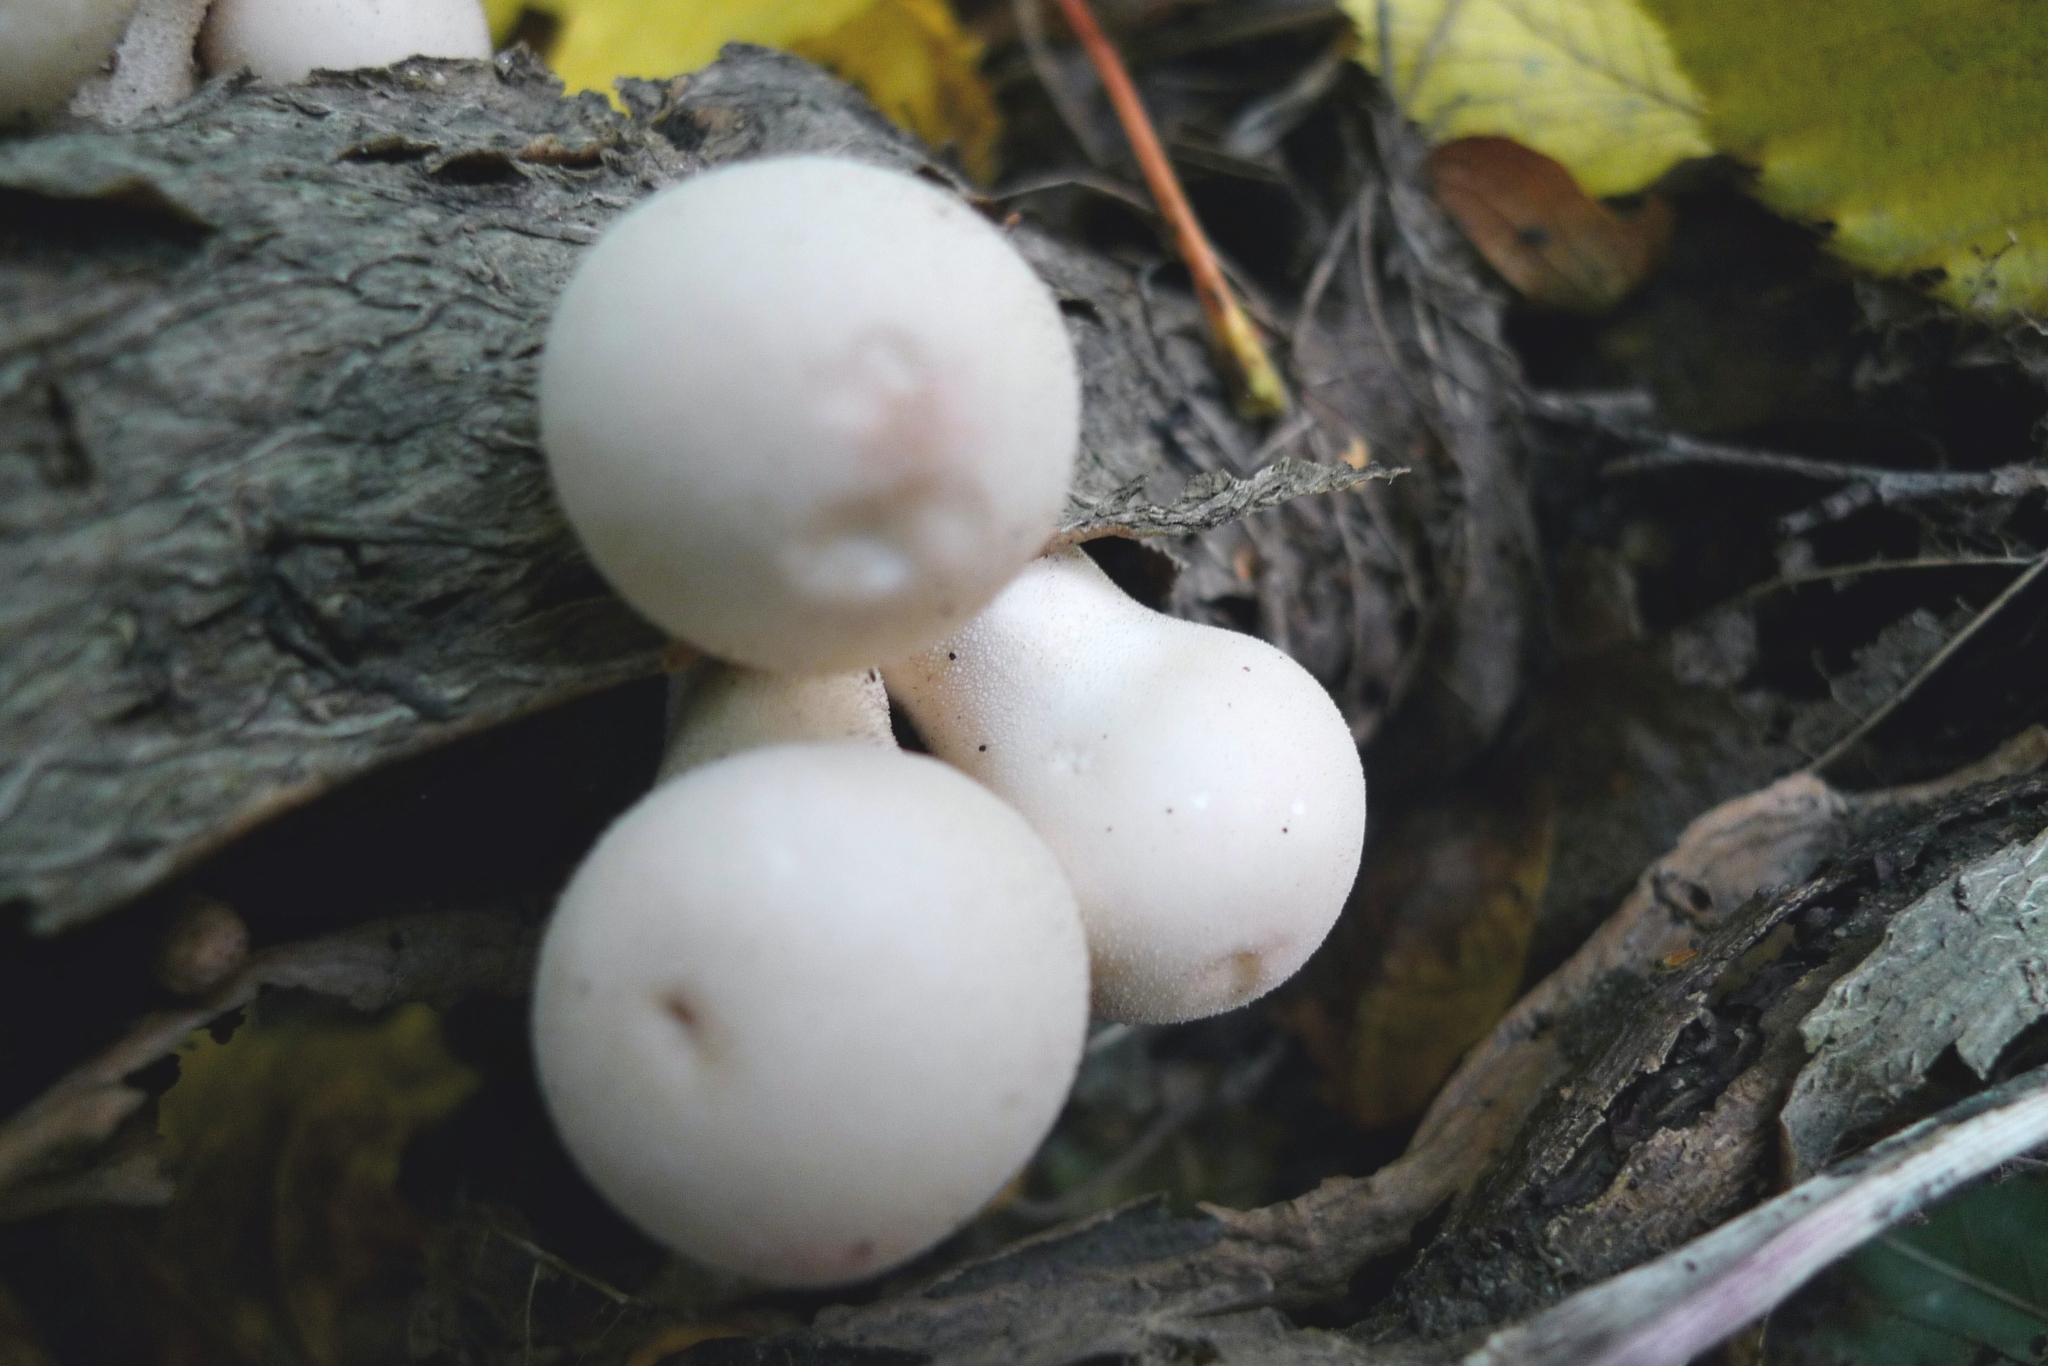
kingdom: Fungi
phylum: Basidiomycota
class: Agaricomycetes
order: Agaricales
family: Lycoperdaceae
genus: Apioperdon
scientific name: Apioperdon pyriforme
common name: Pear-shaped puffball
